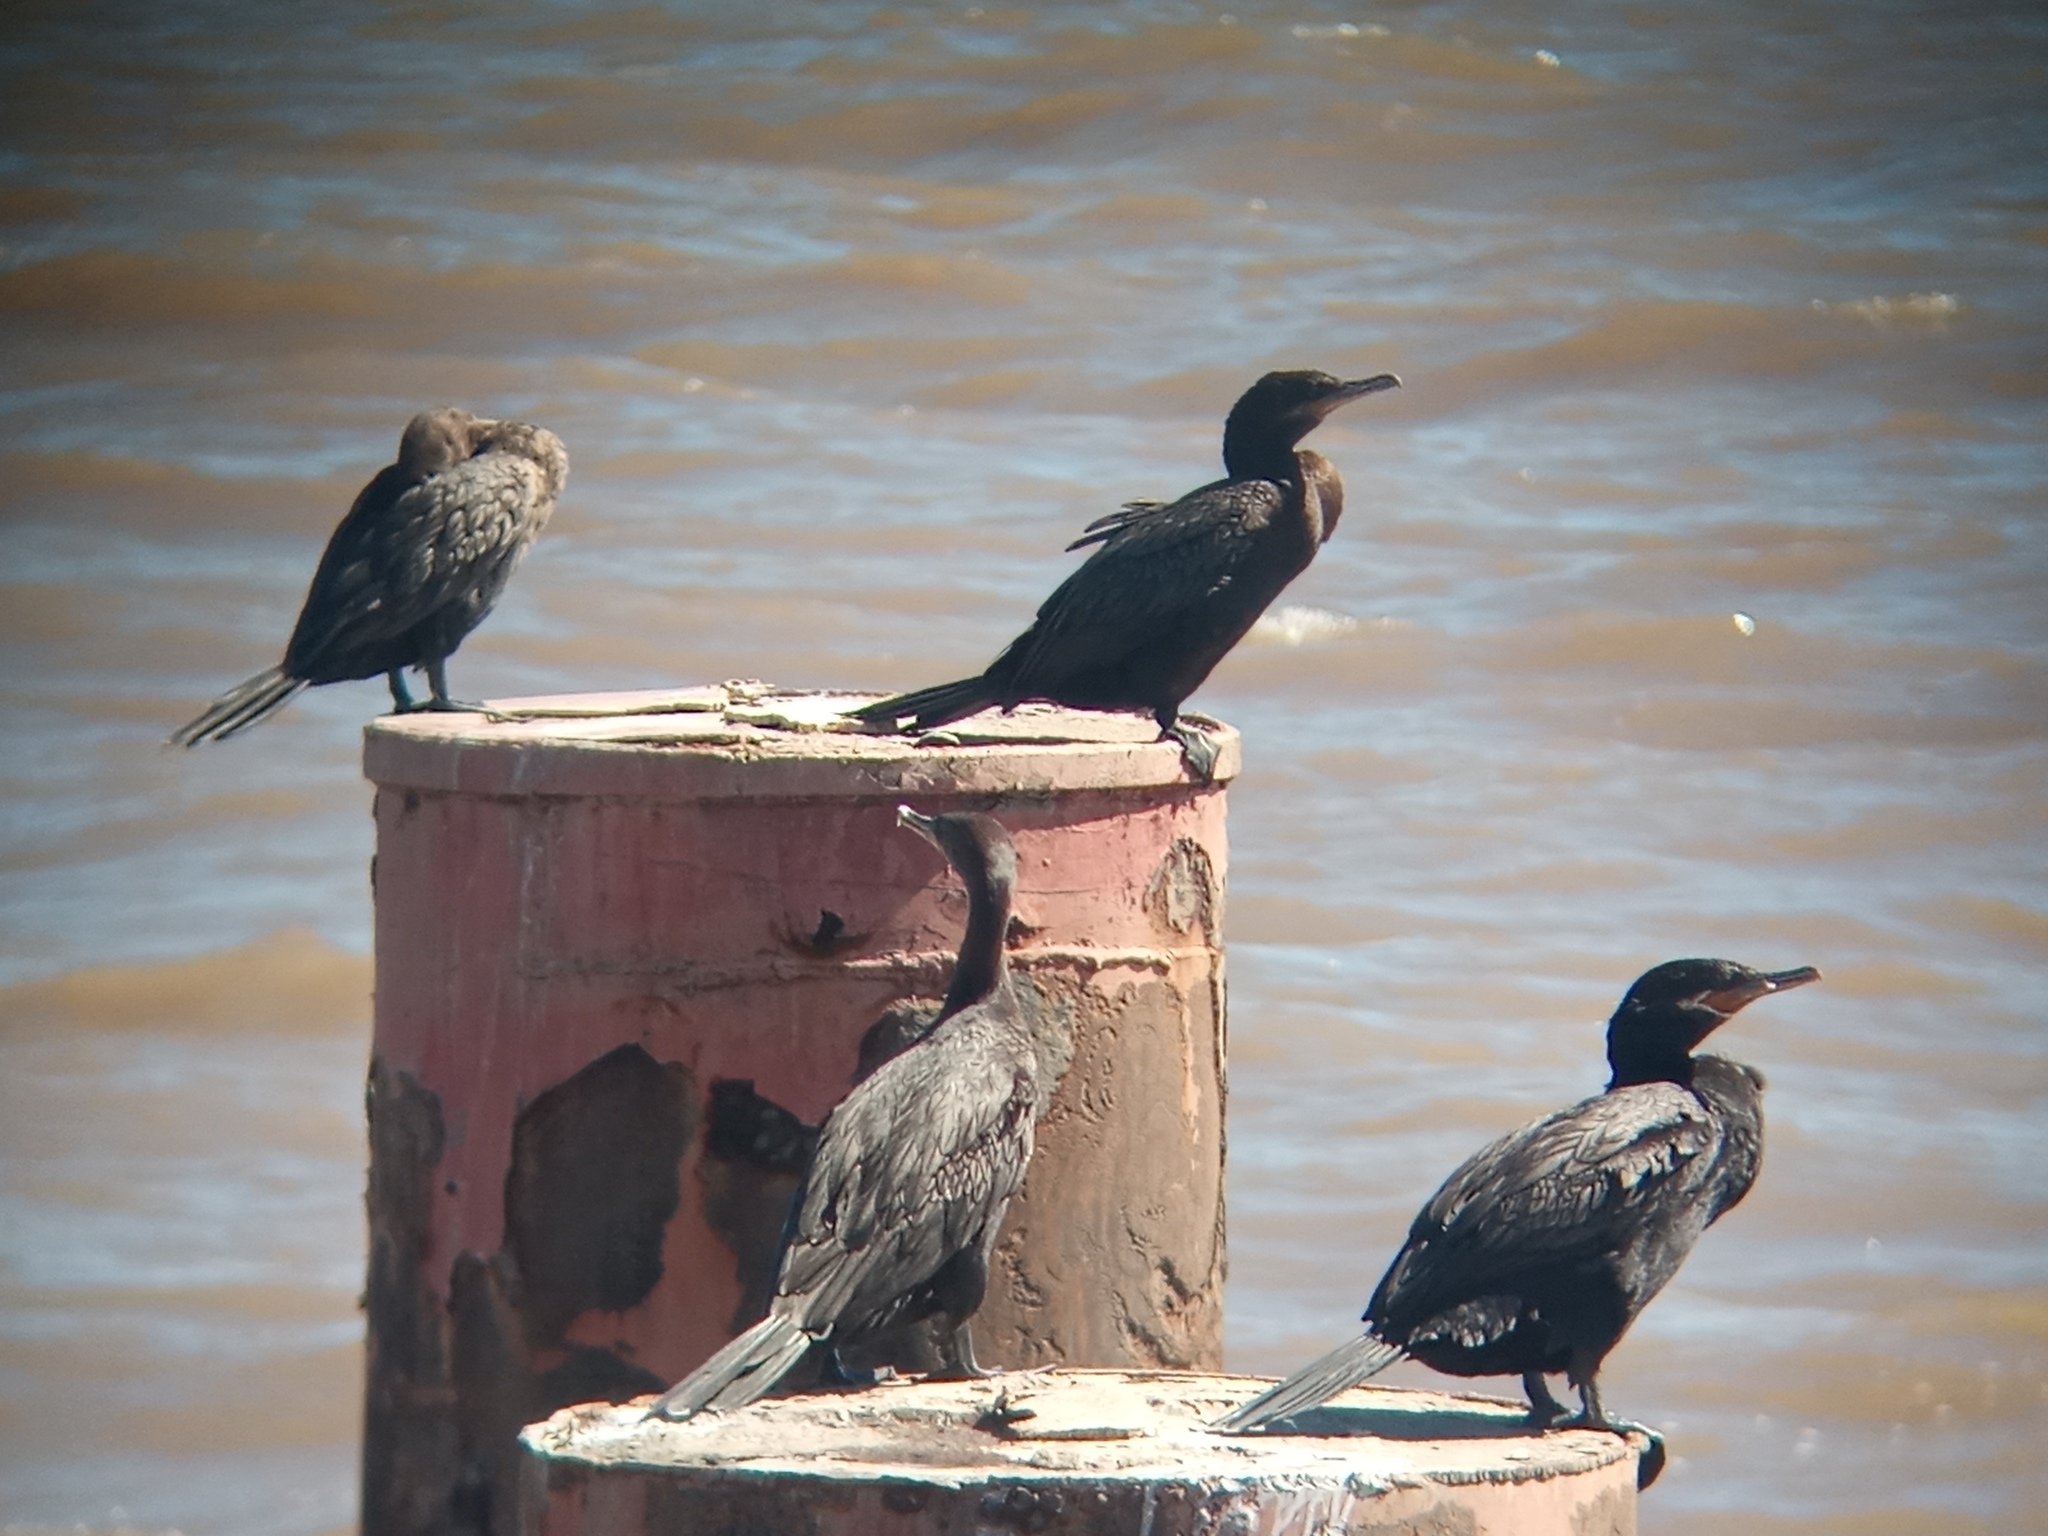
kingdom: Animalia
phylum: Chordata
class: Aves
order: Suliformes
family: Phalacrocoracidae
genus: Phalacrocorax
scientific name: Phalacrocorax brasilianus
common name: Neotropic cormorant
